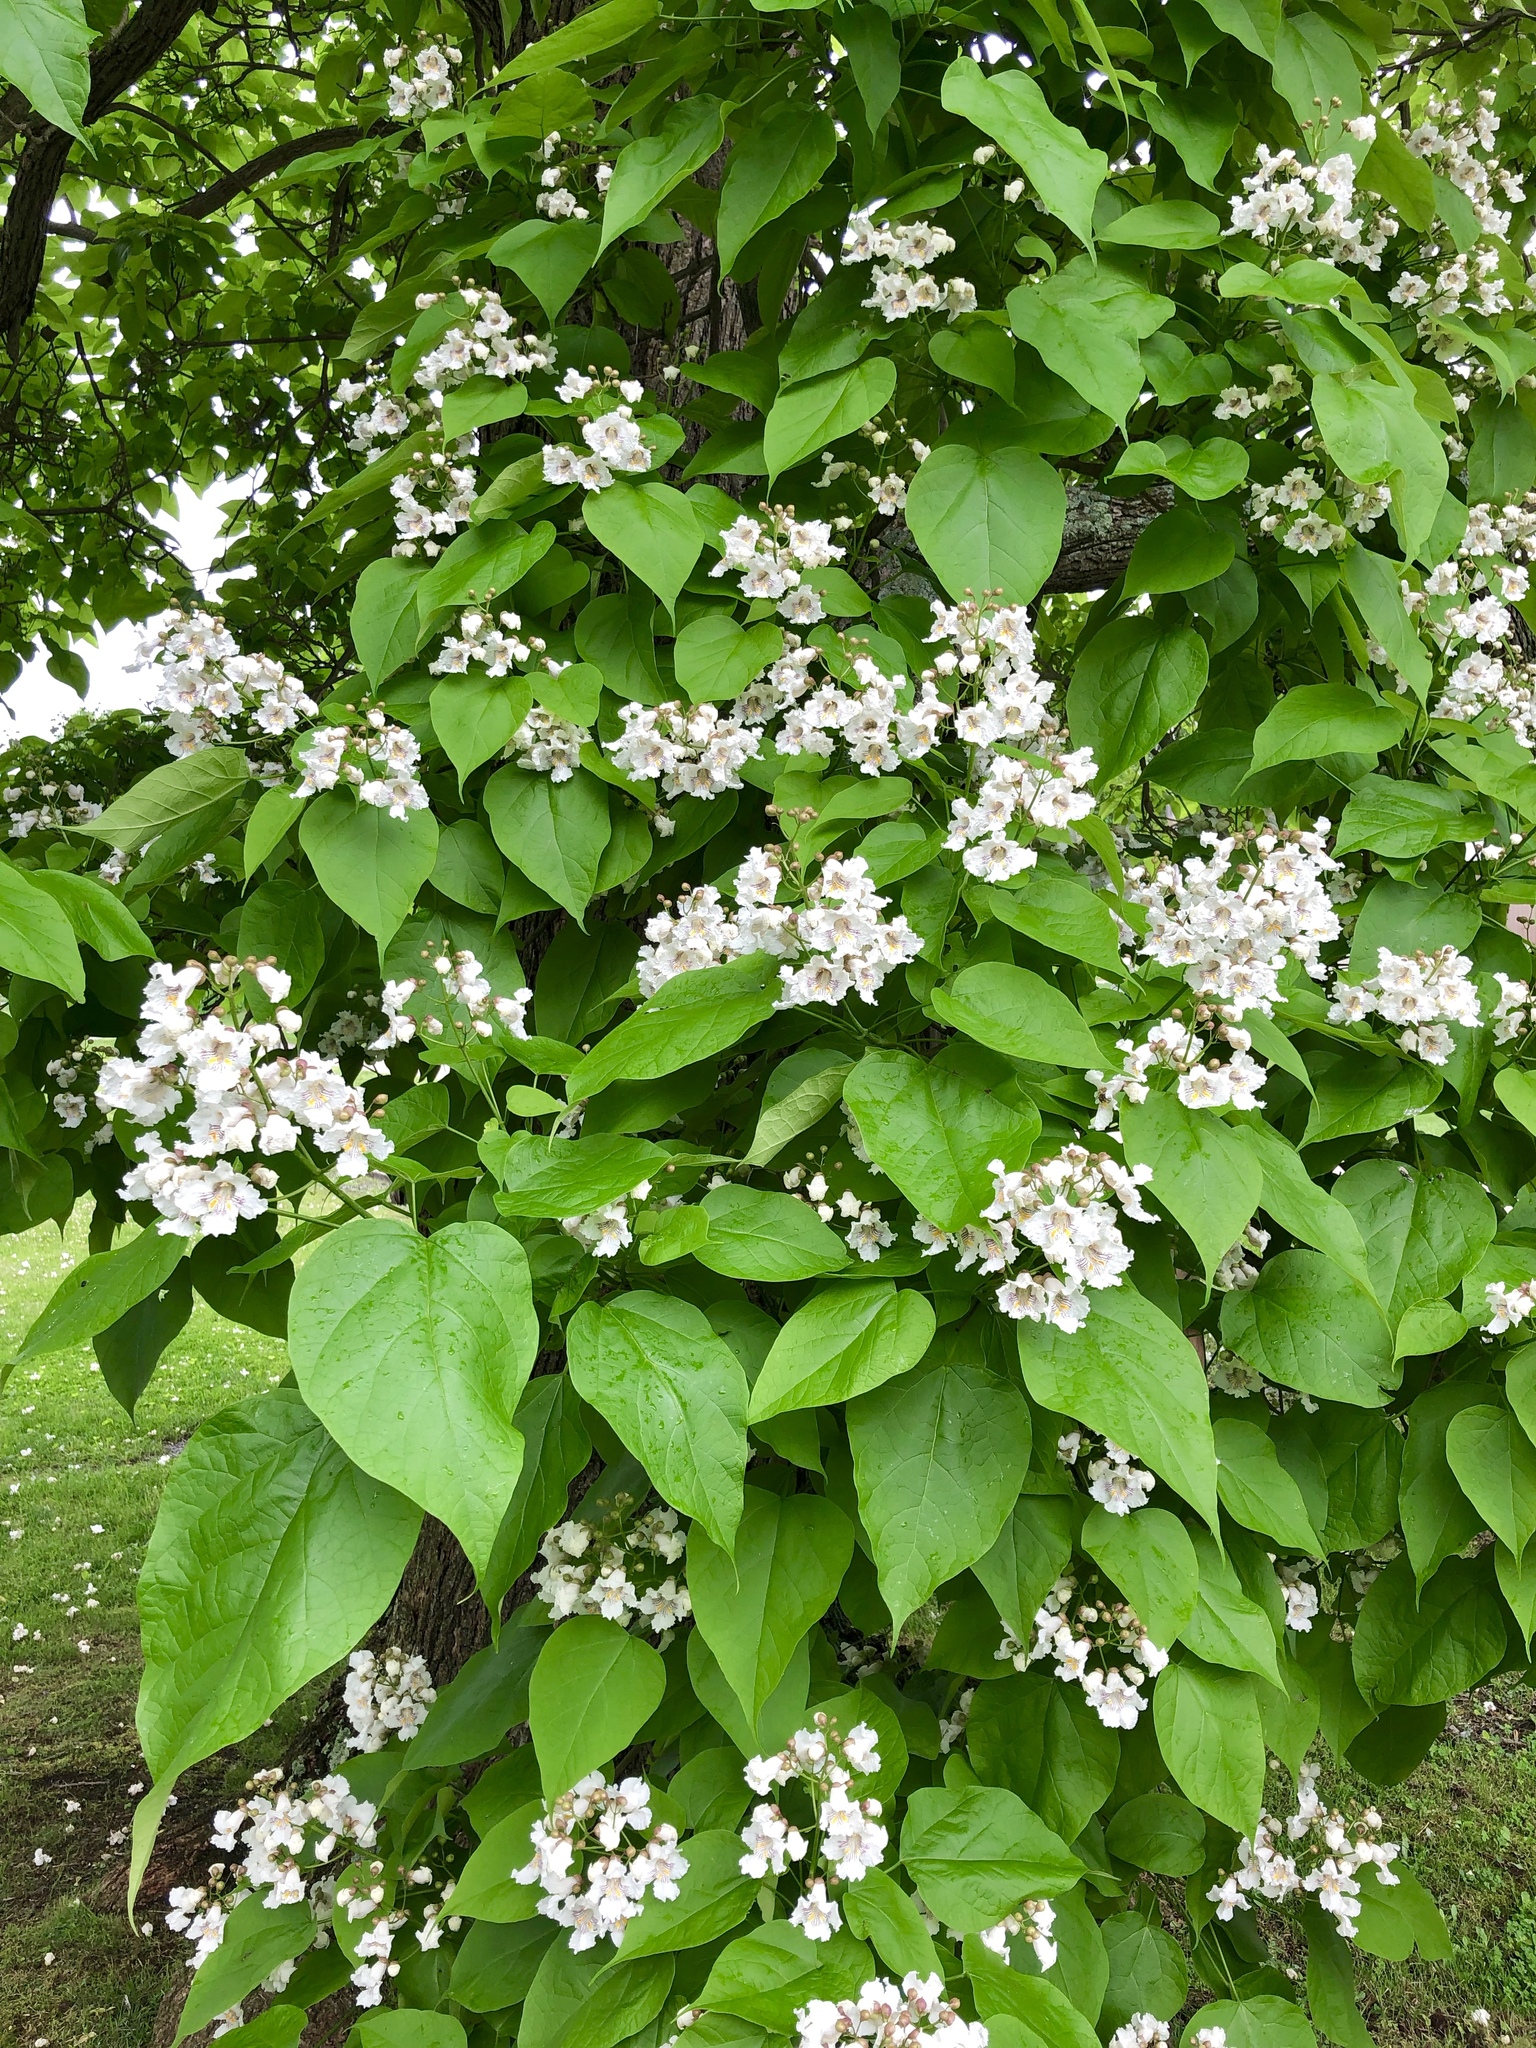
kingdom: Plantae
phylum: Tracheophyta
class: Magnoliopsida
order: Lamiales
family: Bignoniaceae
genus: Catalpa
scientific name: Catalpa speciosa
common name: Northern catalpa
